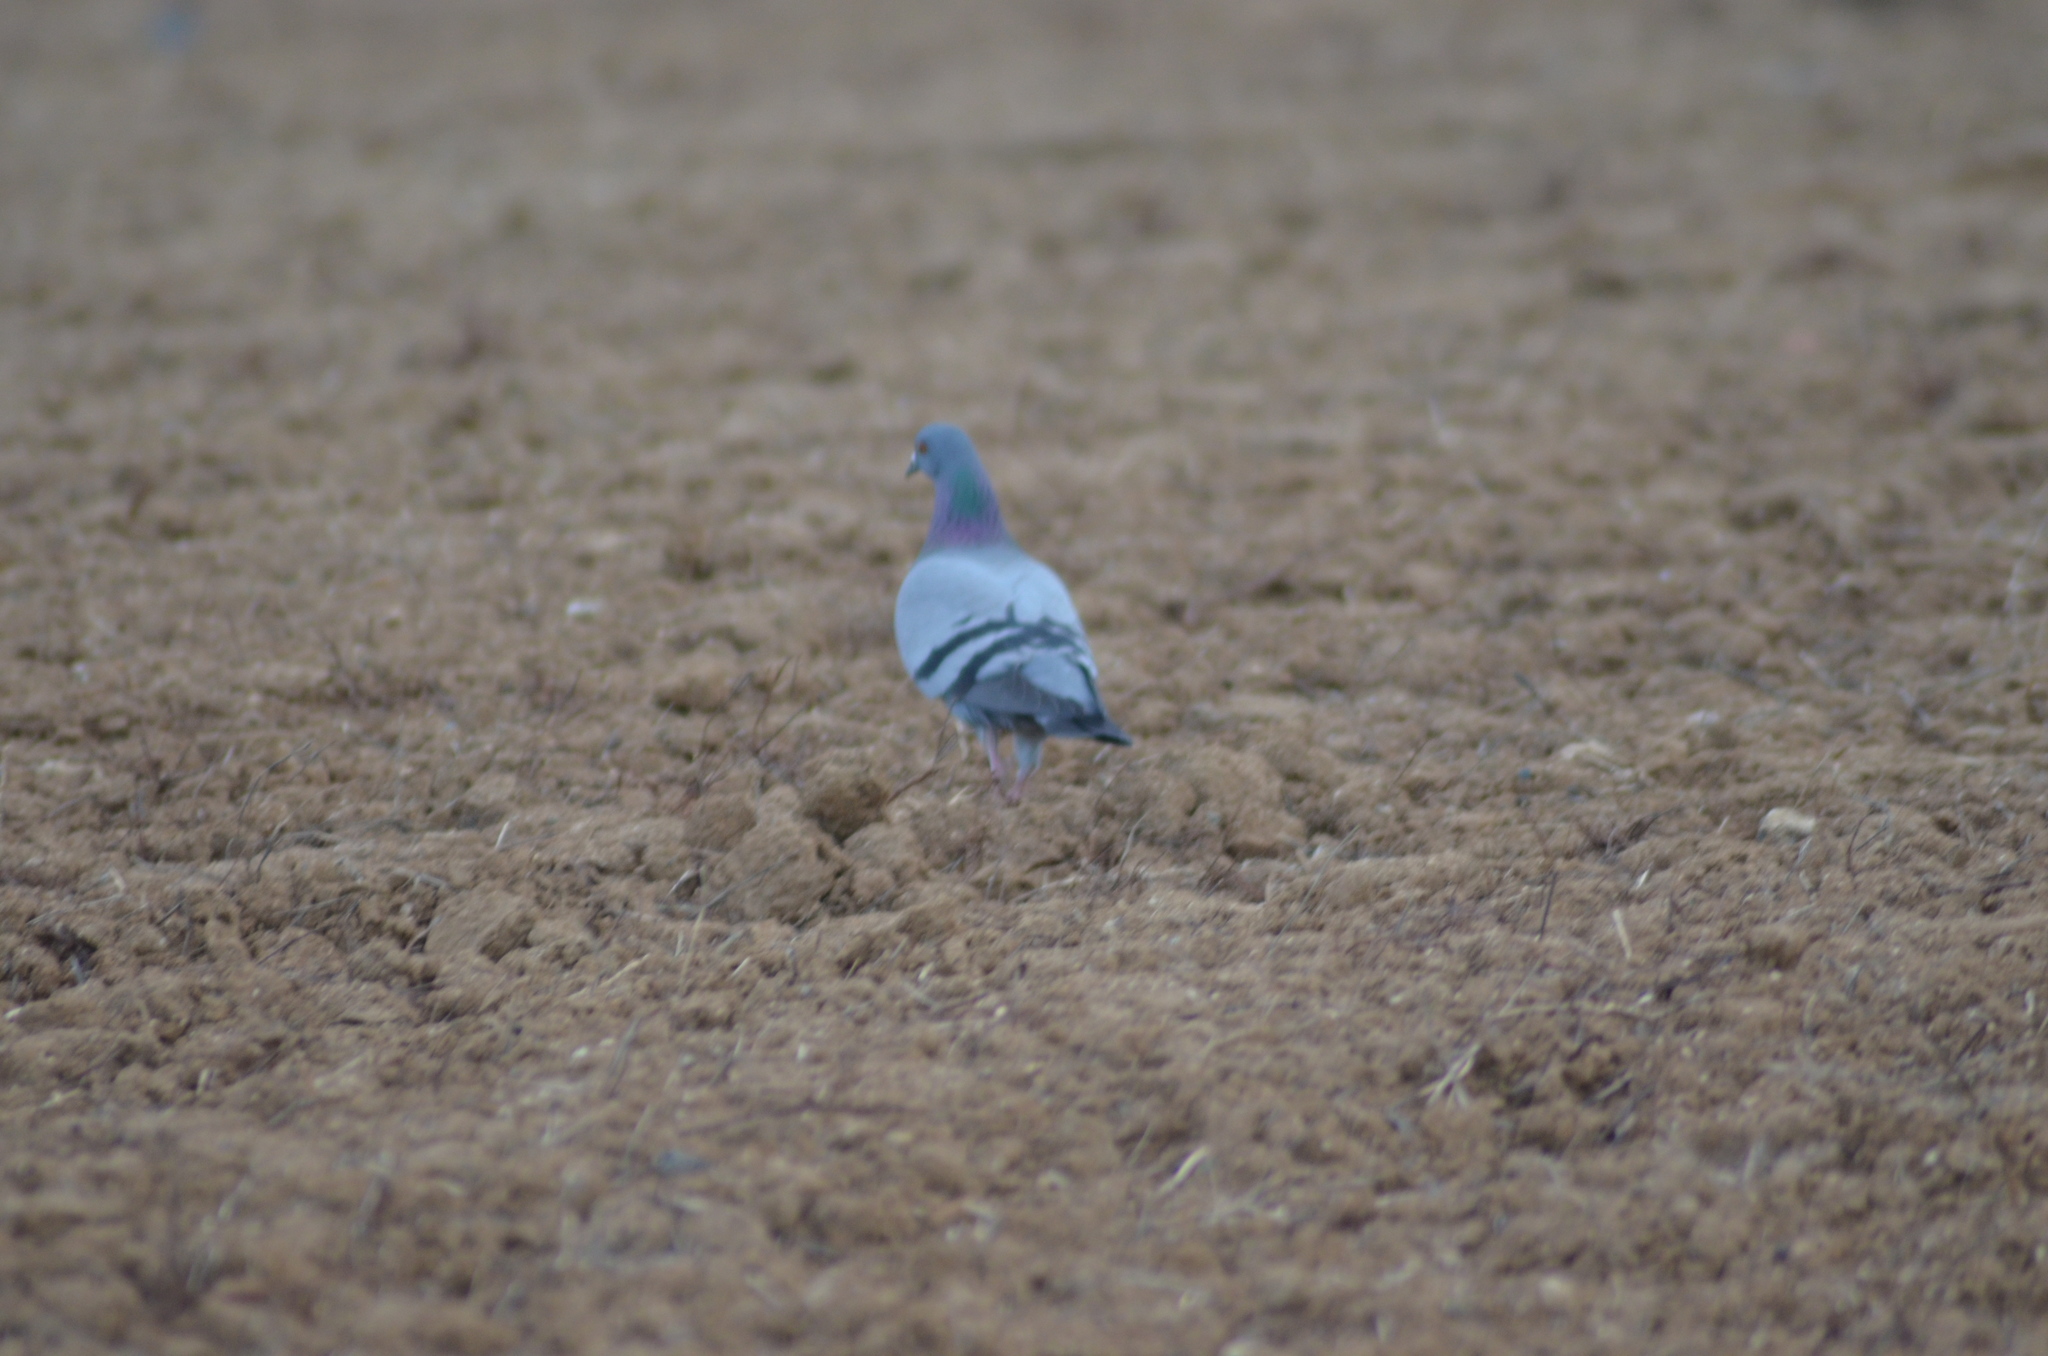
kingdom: Animalia
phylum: Chordata
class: Aves
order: Columbiformes
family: Columbidae
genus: Columba
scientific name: Columba livia
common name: Rock pigeon
